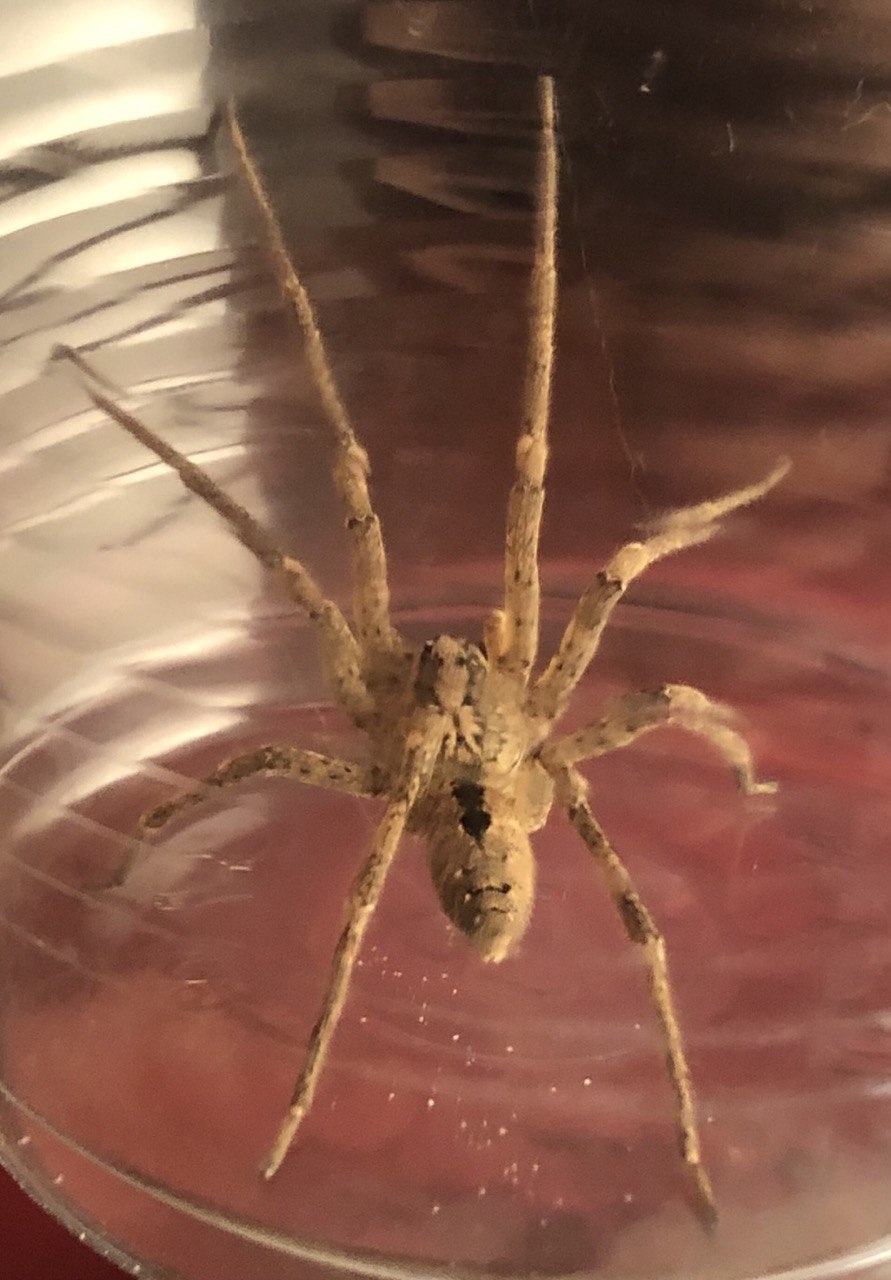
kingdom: Animalia
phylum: Arthropoda
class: Arachnida
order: Araneae
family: Zoropsidae
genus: Zoropsis
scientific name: Zoropsis spinimana
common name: Zoropsid spider
